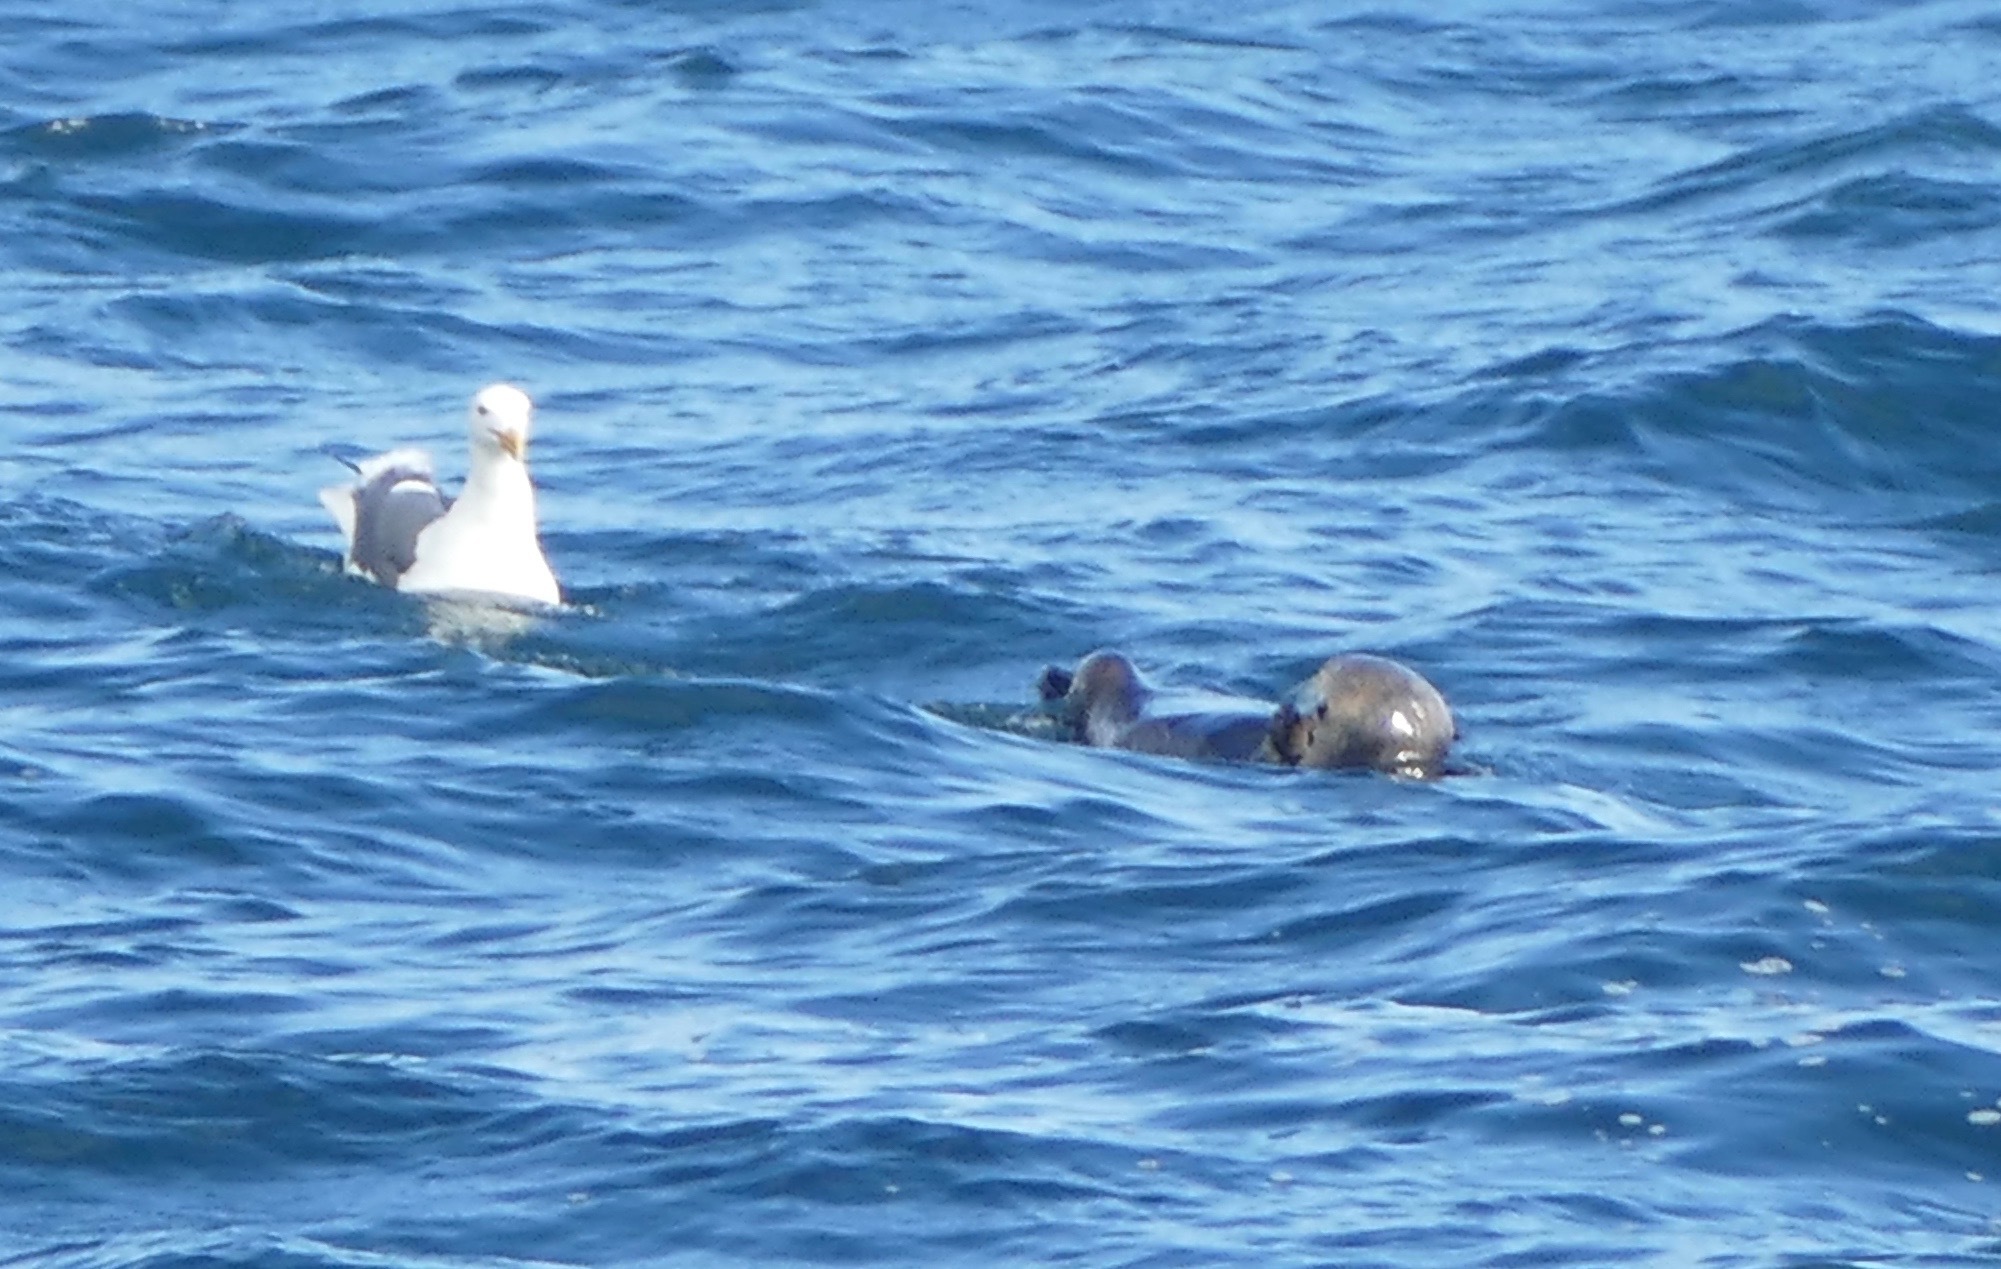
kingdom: Animalia
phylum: Chordata
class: Mammalia
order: Carnivora
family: Mustelidae
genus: Enhydra
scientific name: Enhydra lutris
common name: Sea otter
